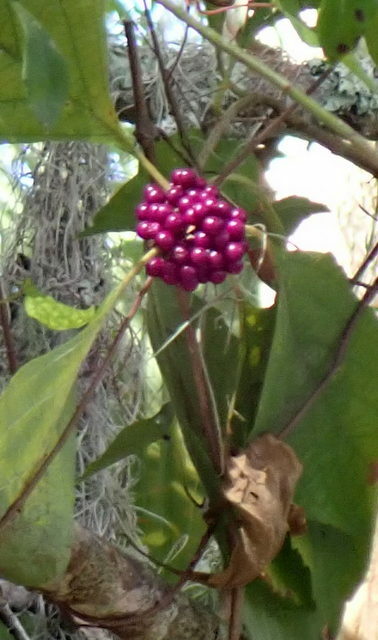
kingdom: Plantae
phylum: Tracheophyta
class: Magnoliopsida
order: Lamiales
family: Lamiaceae
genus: Callicarpa
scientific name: Callicarpa americana
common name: American beautyberry
